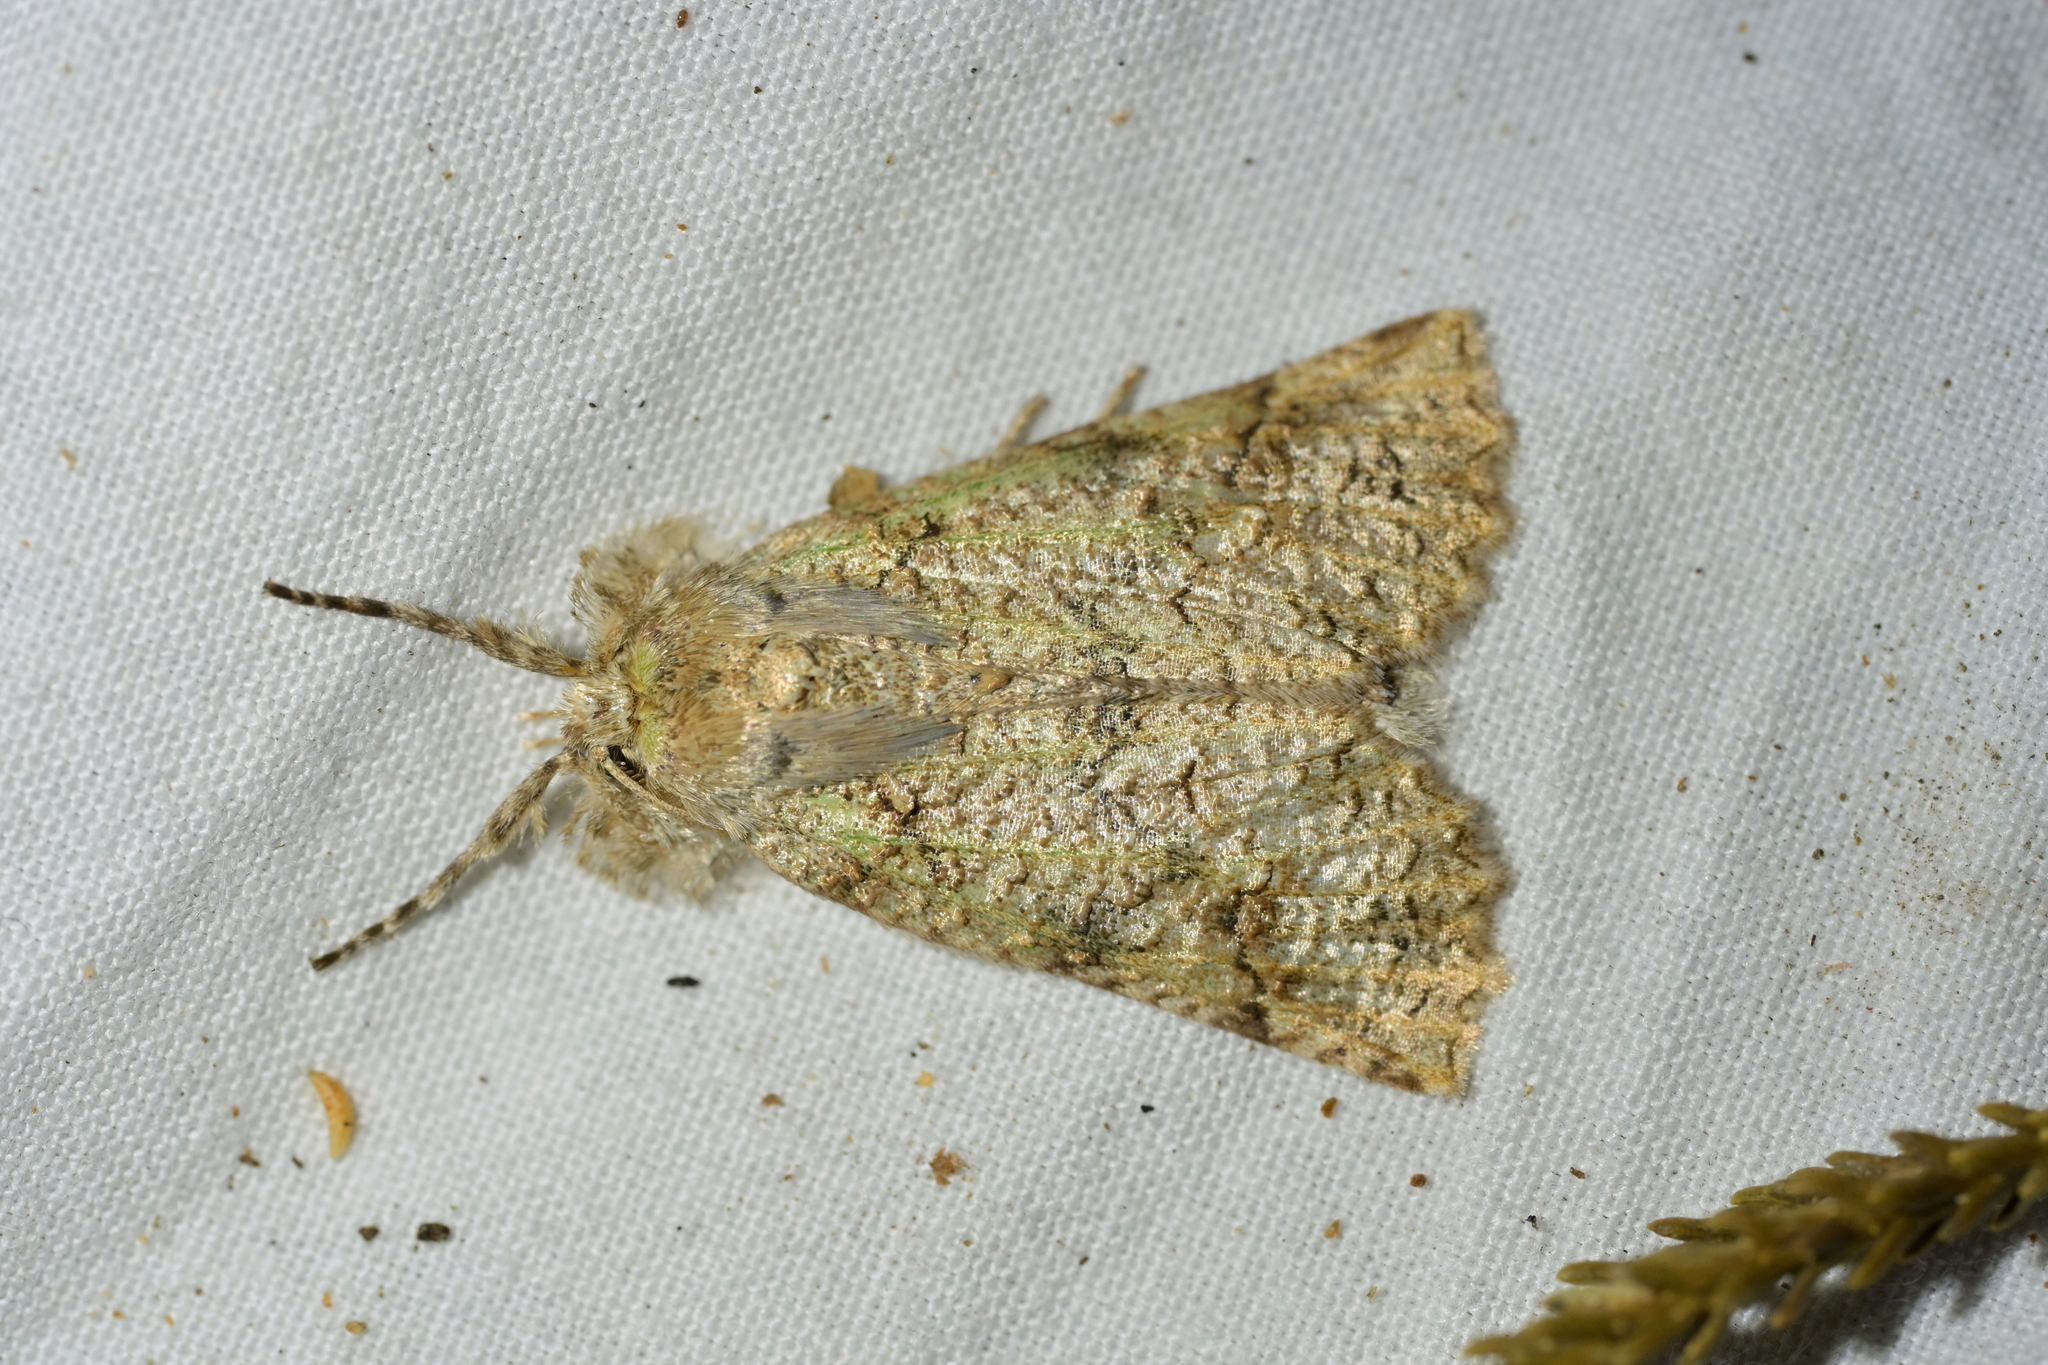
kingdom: Animalia
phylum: Arthropoda
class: Insecta
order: Lepidoptera
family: Geometridae
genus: Declana
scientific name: Declana floccosa
